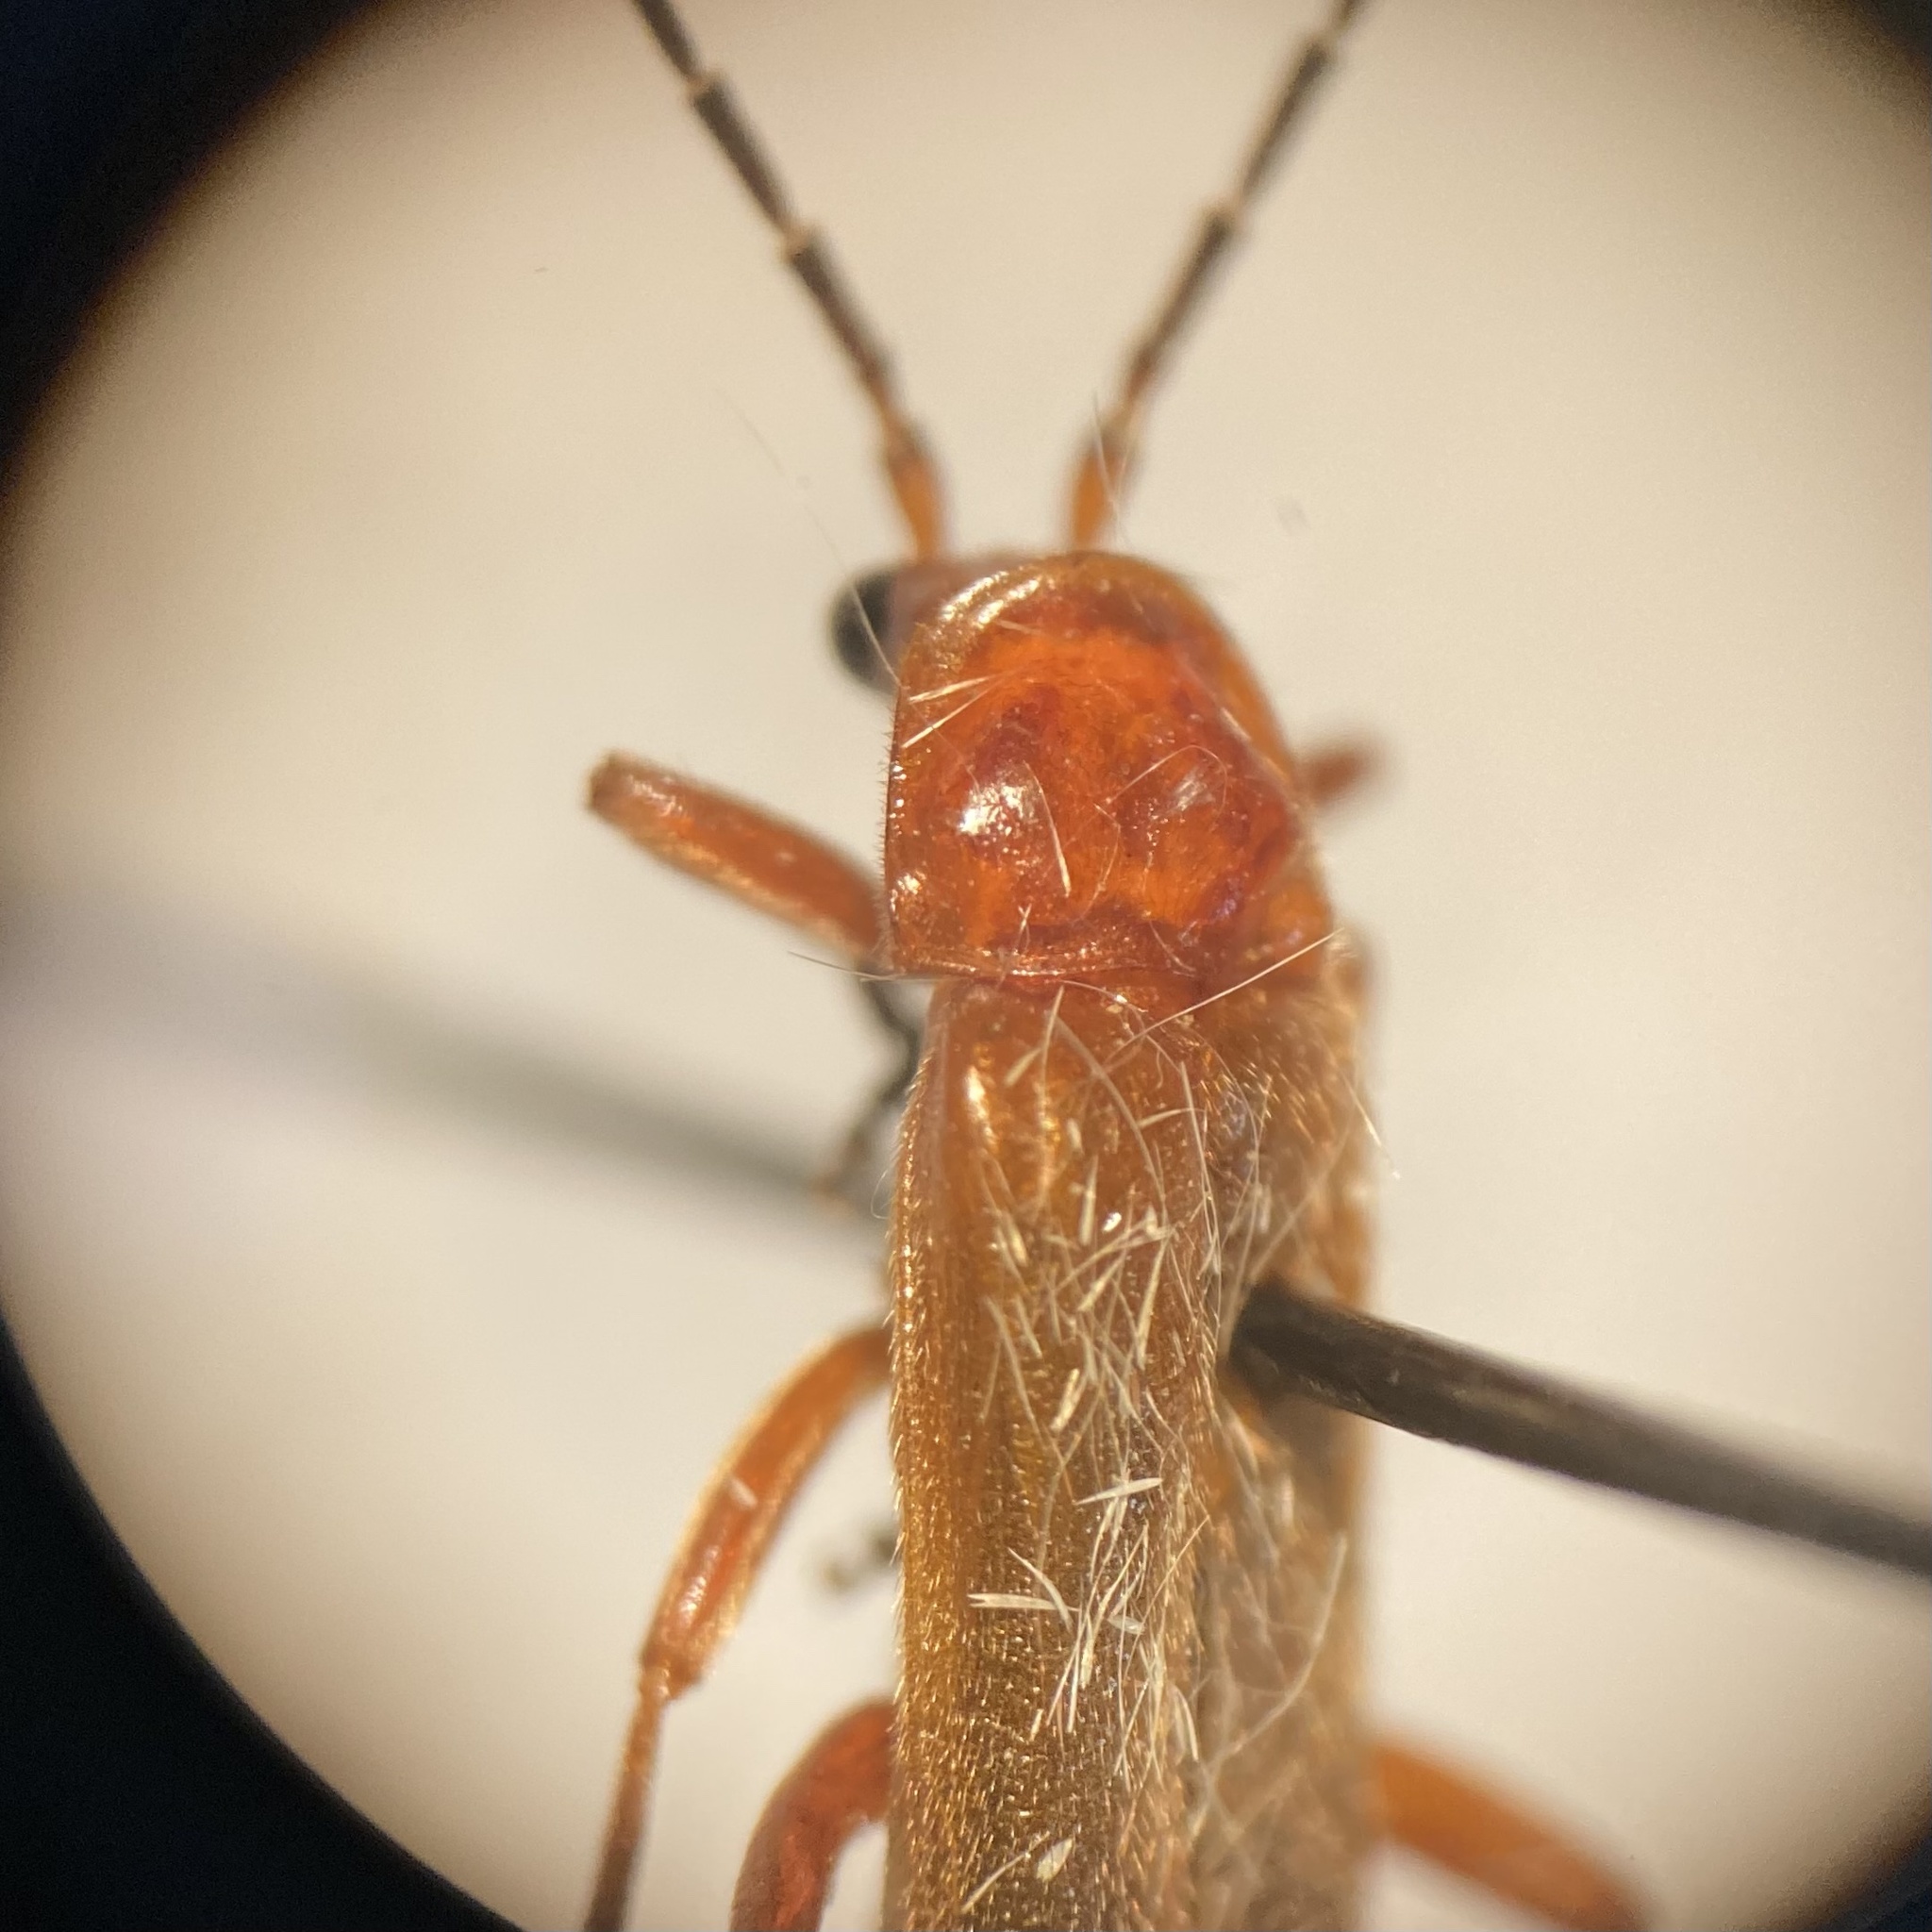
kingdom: Animalia
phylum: Arthropoda
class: Insecta
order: Coleoptera
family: Cantharidae
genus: Rhagonycha
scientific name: Rhagonycha fulva
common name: Common red soldier beetle
